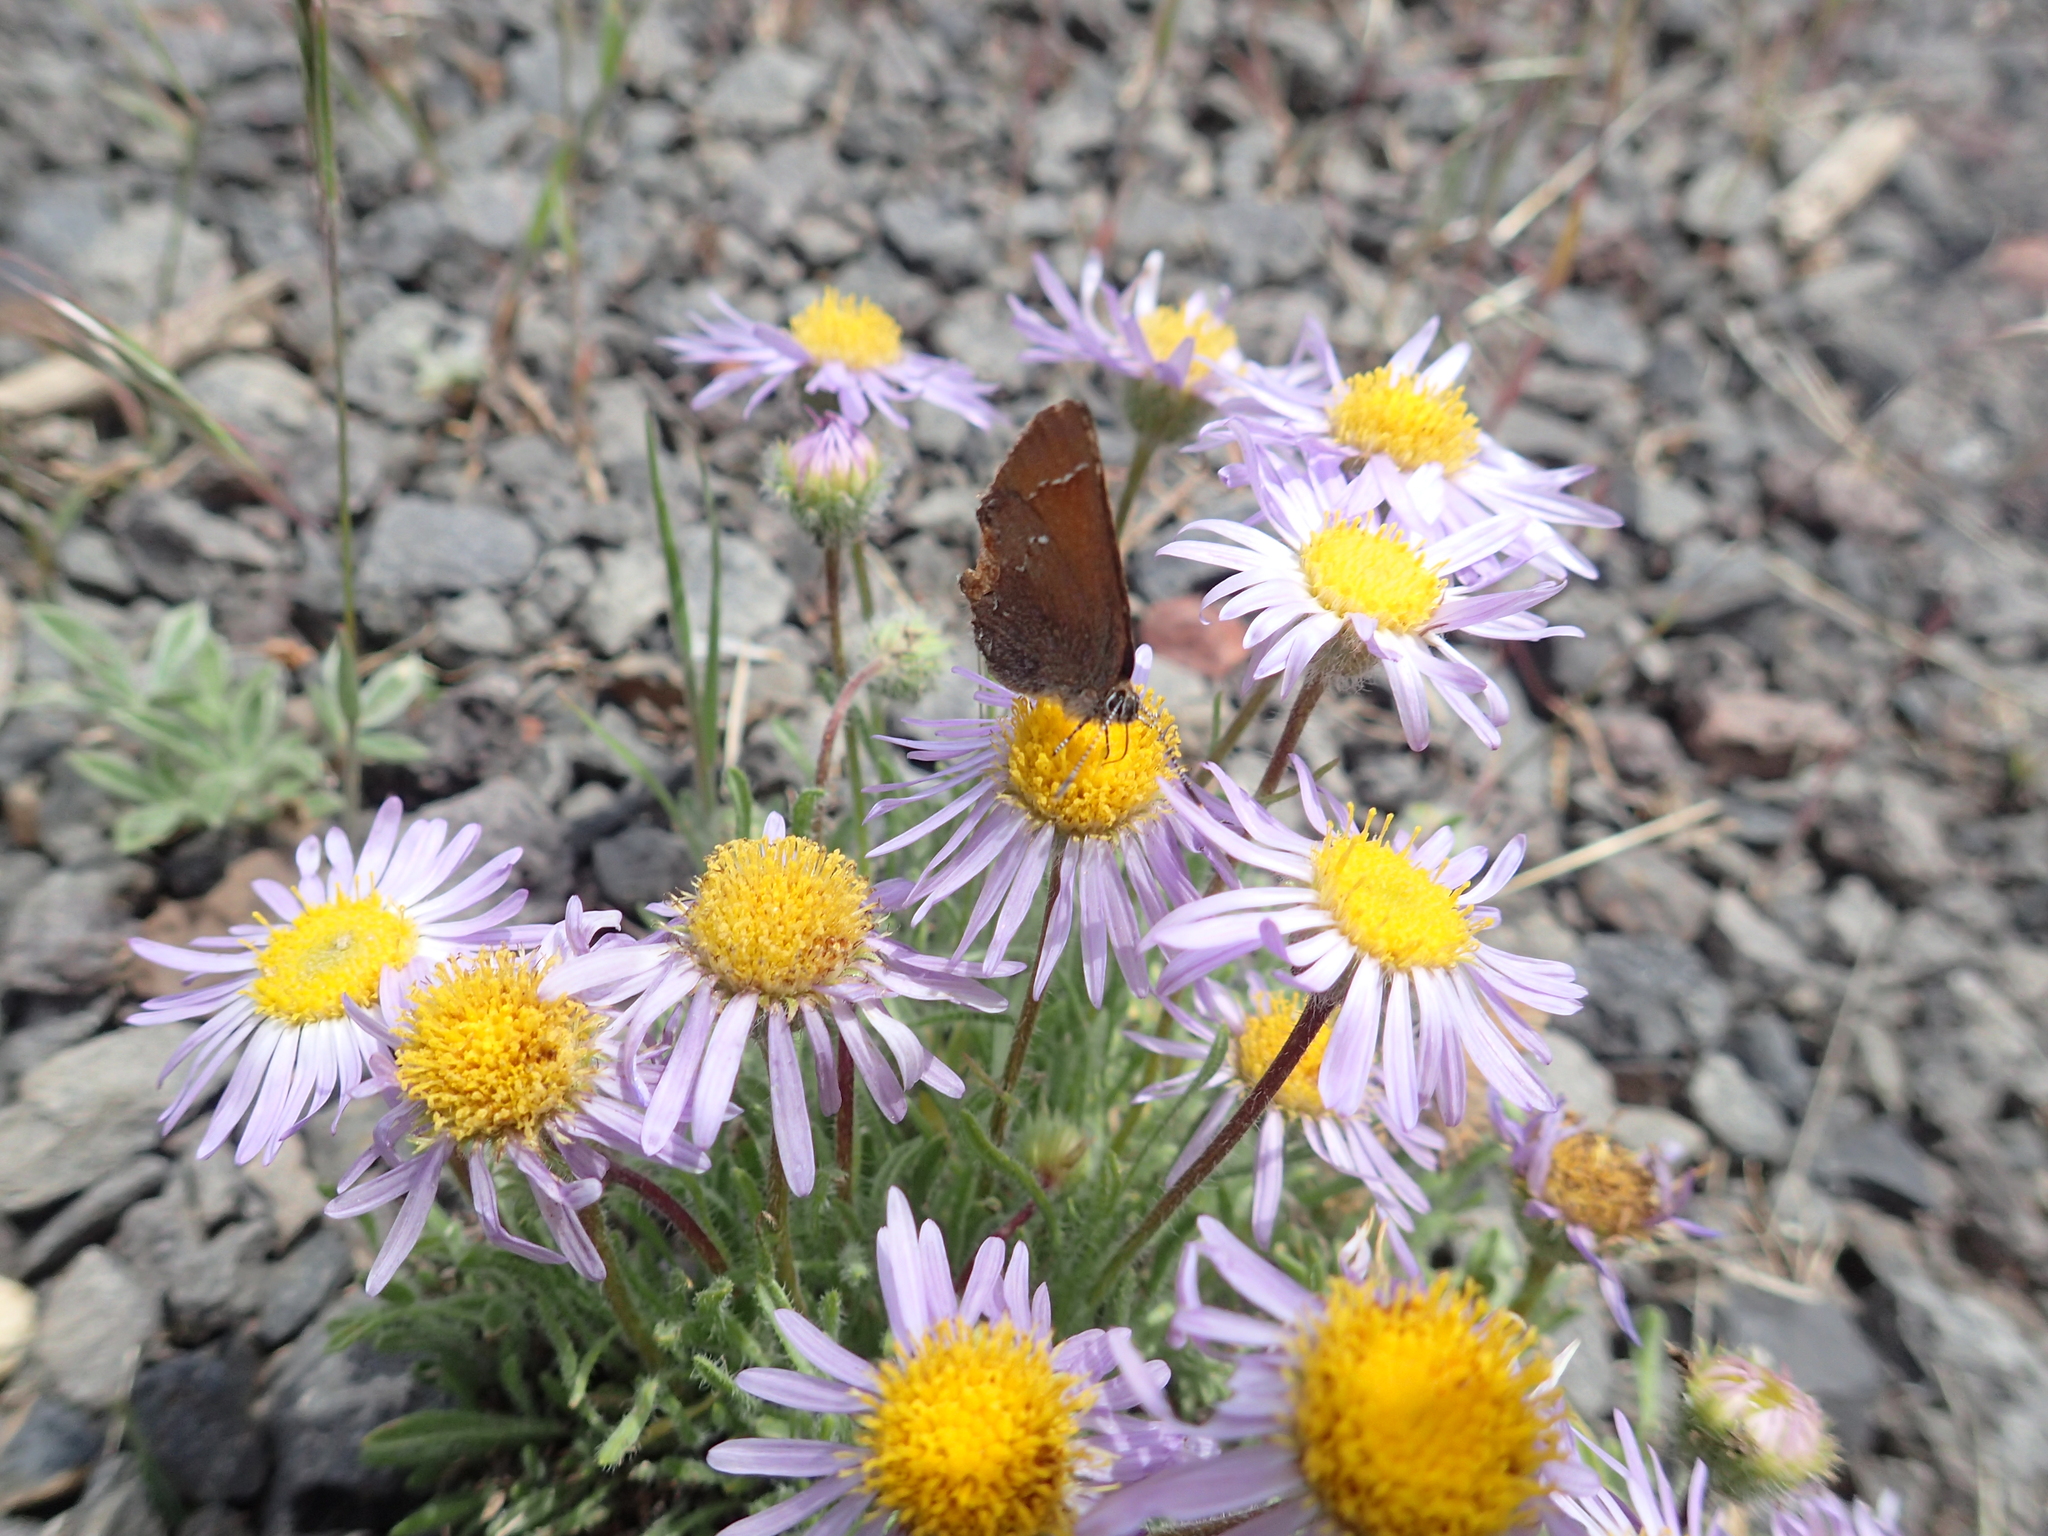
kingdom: Animalia
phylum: Arthropoda
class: Insecta
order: Lepidoptera
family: Lycaenidae
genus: Mitoura
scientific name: Mitoura gryneus
